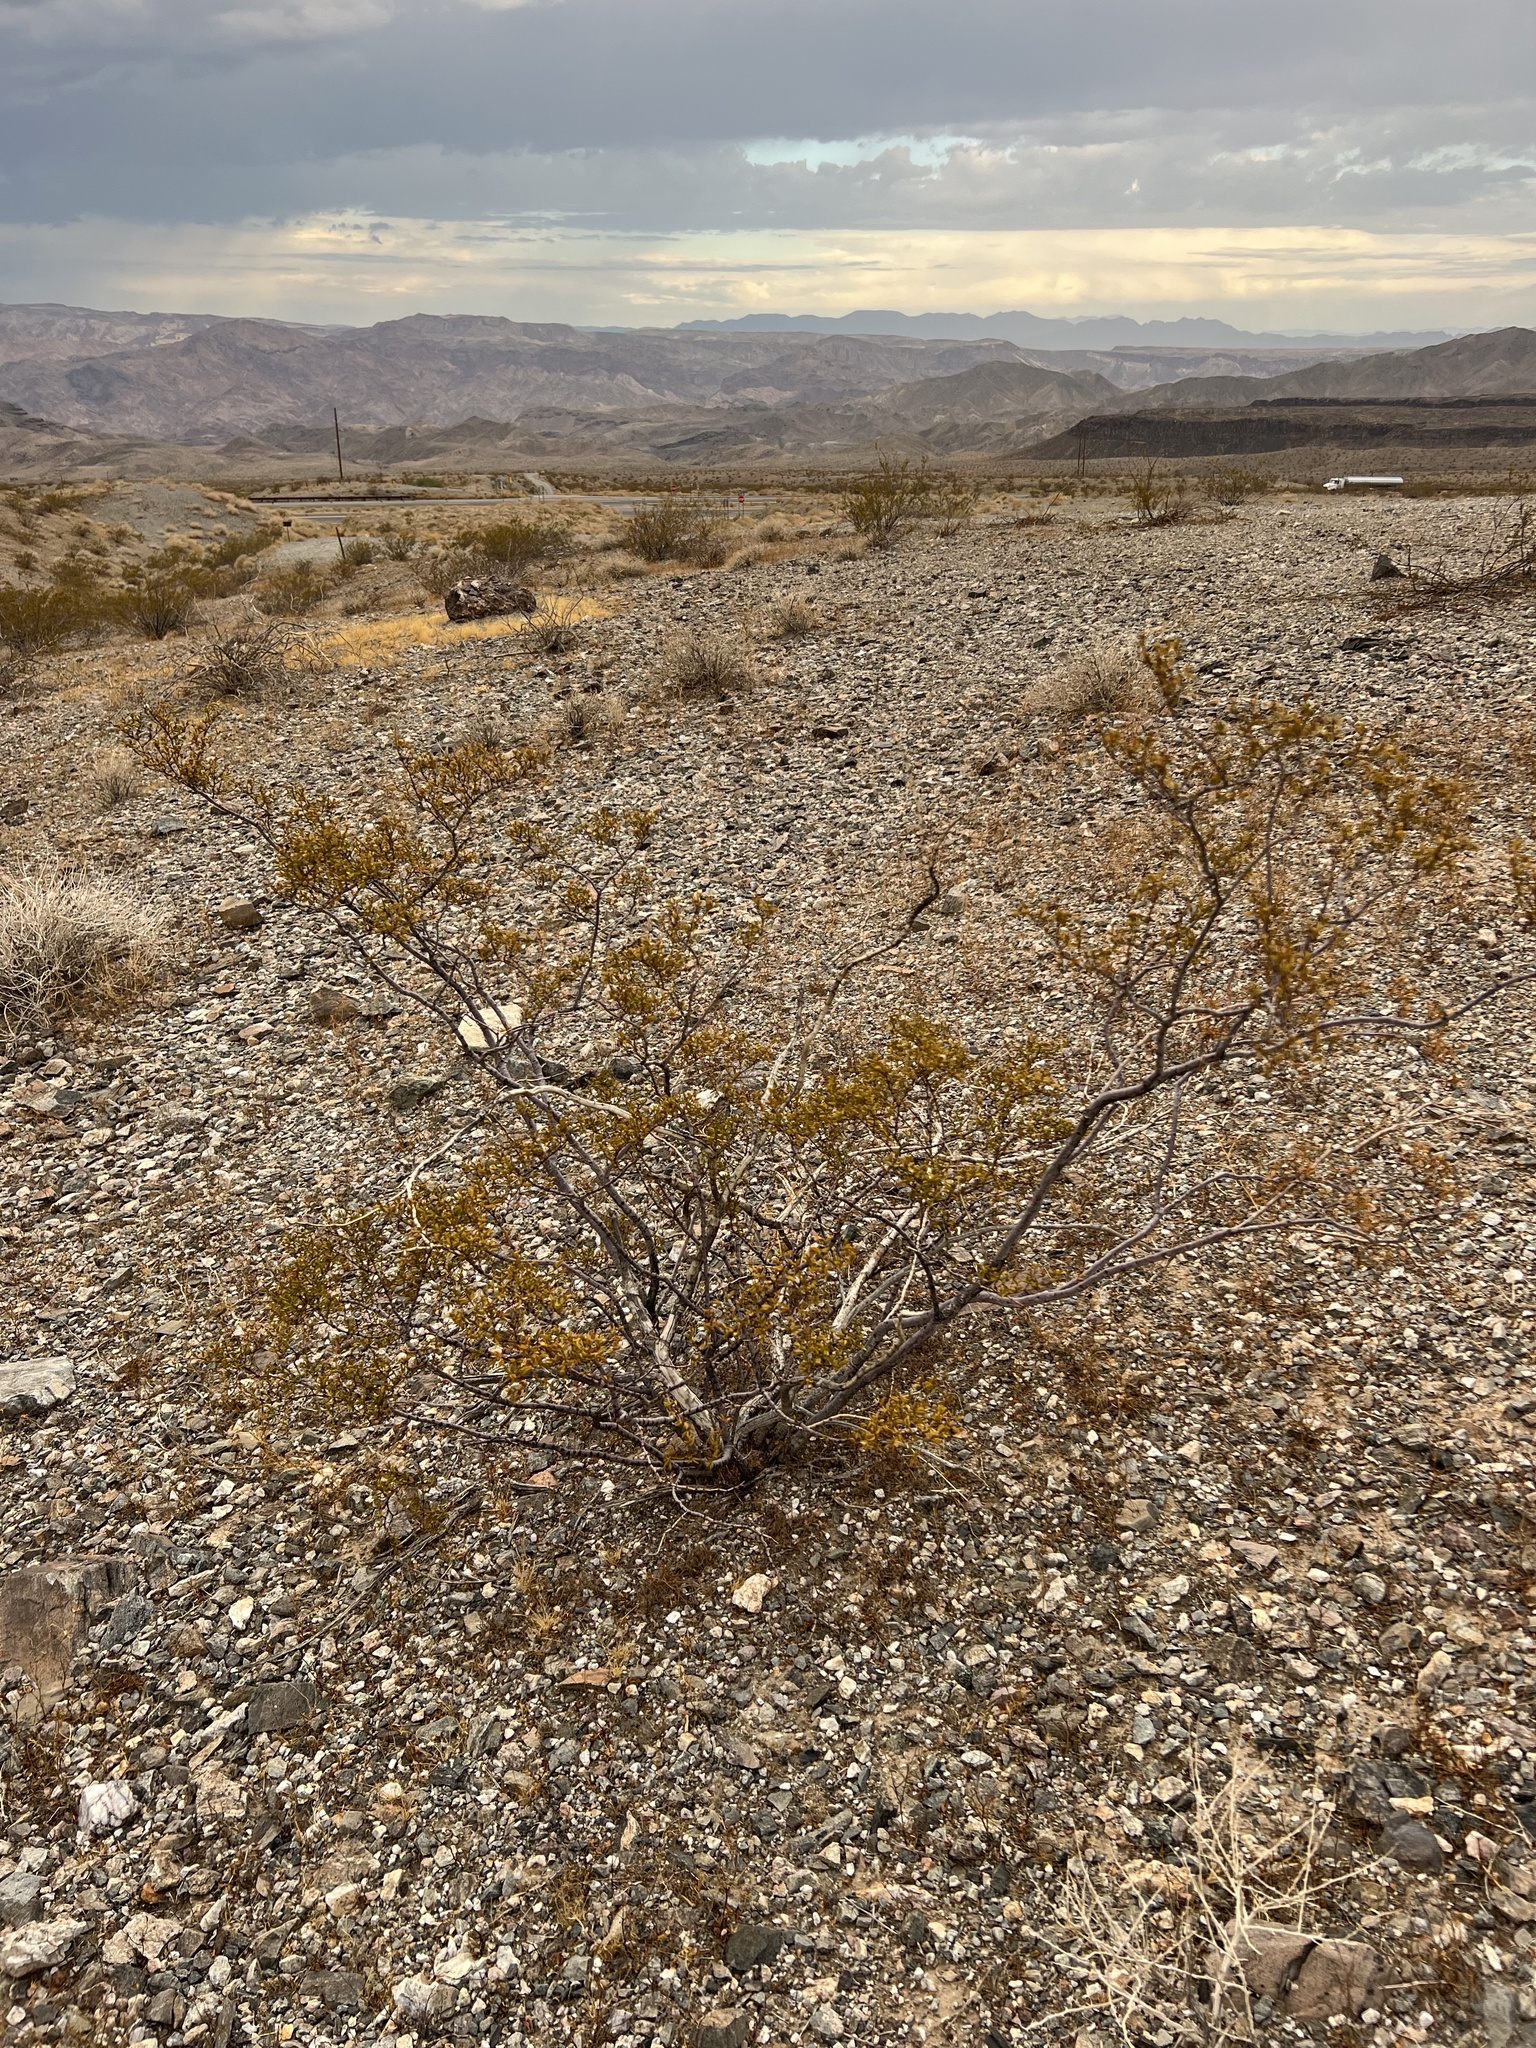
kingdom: Plantae
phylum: Tracheophyta
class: Magnoliopsida
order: Zygophyllales
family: Zygophyllaceae
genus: Larrea
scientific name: Larrea tridentata
